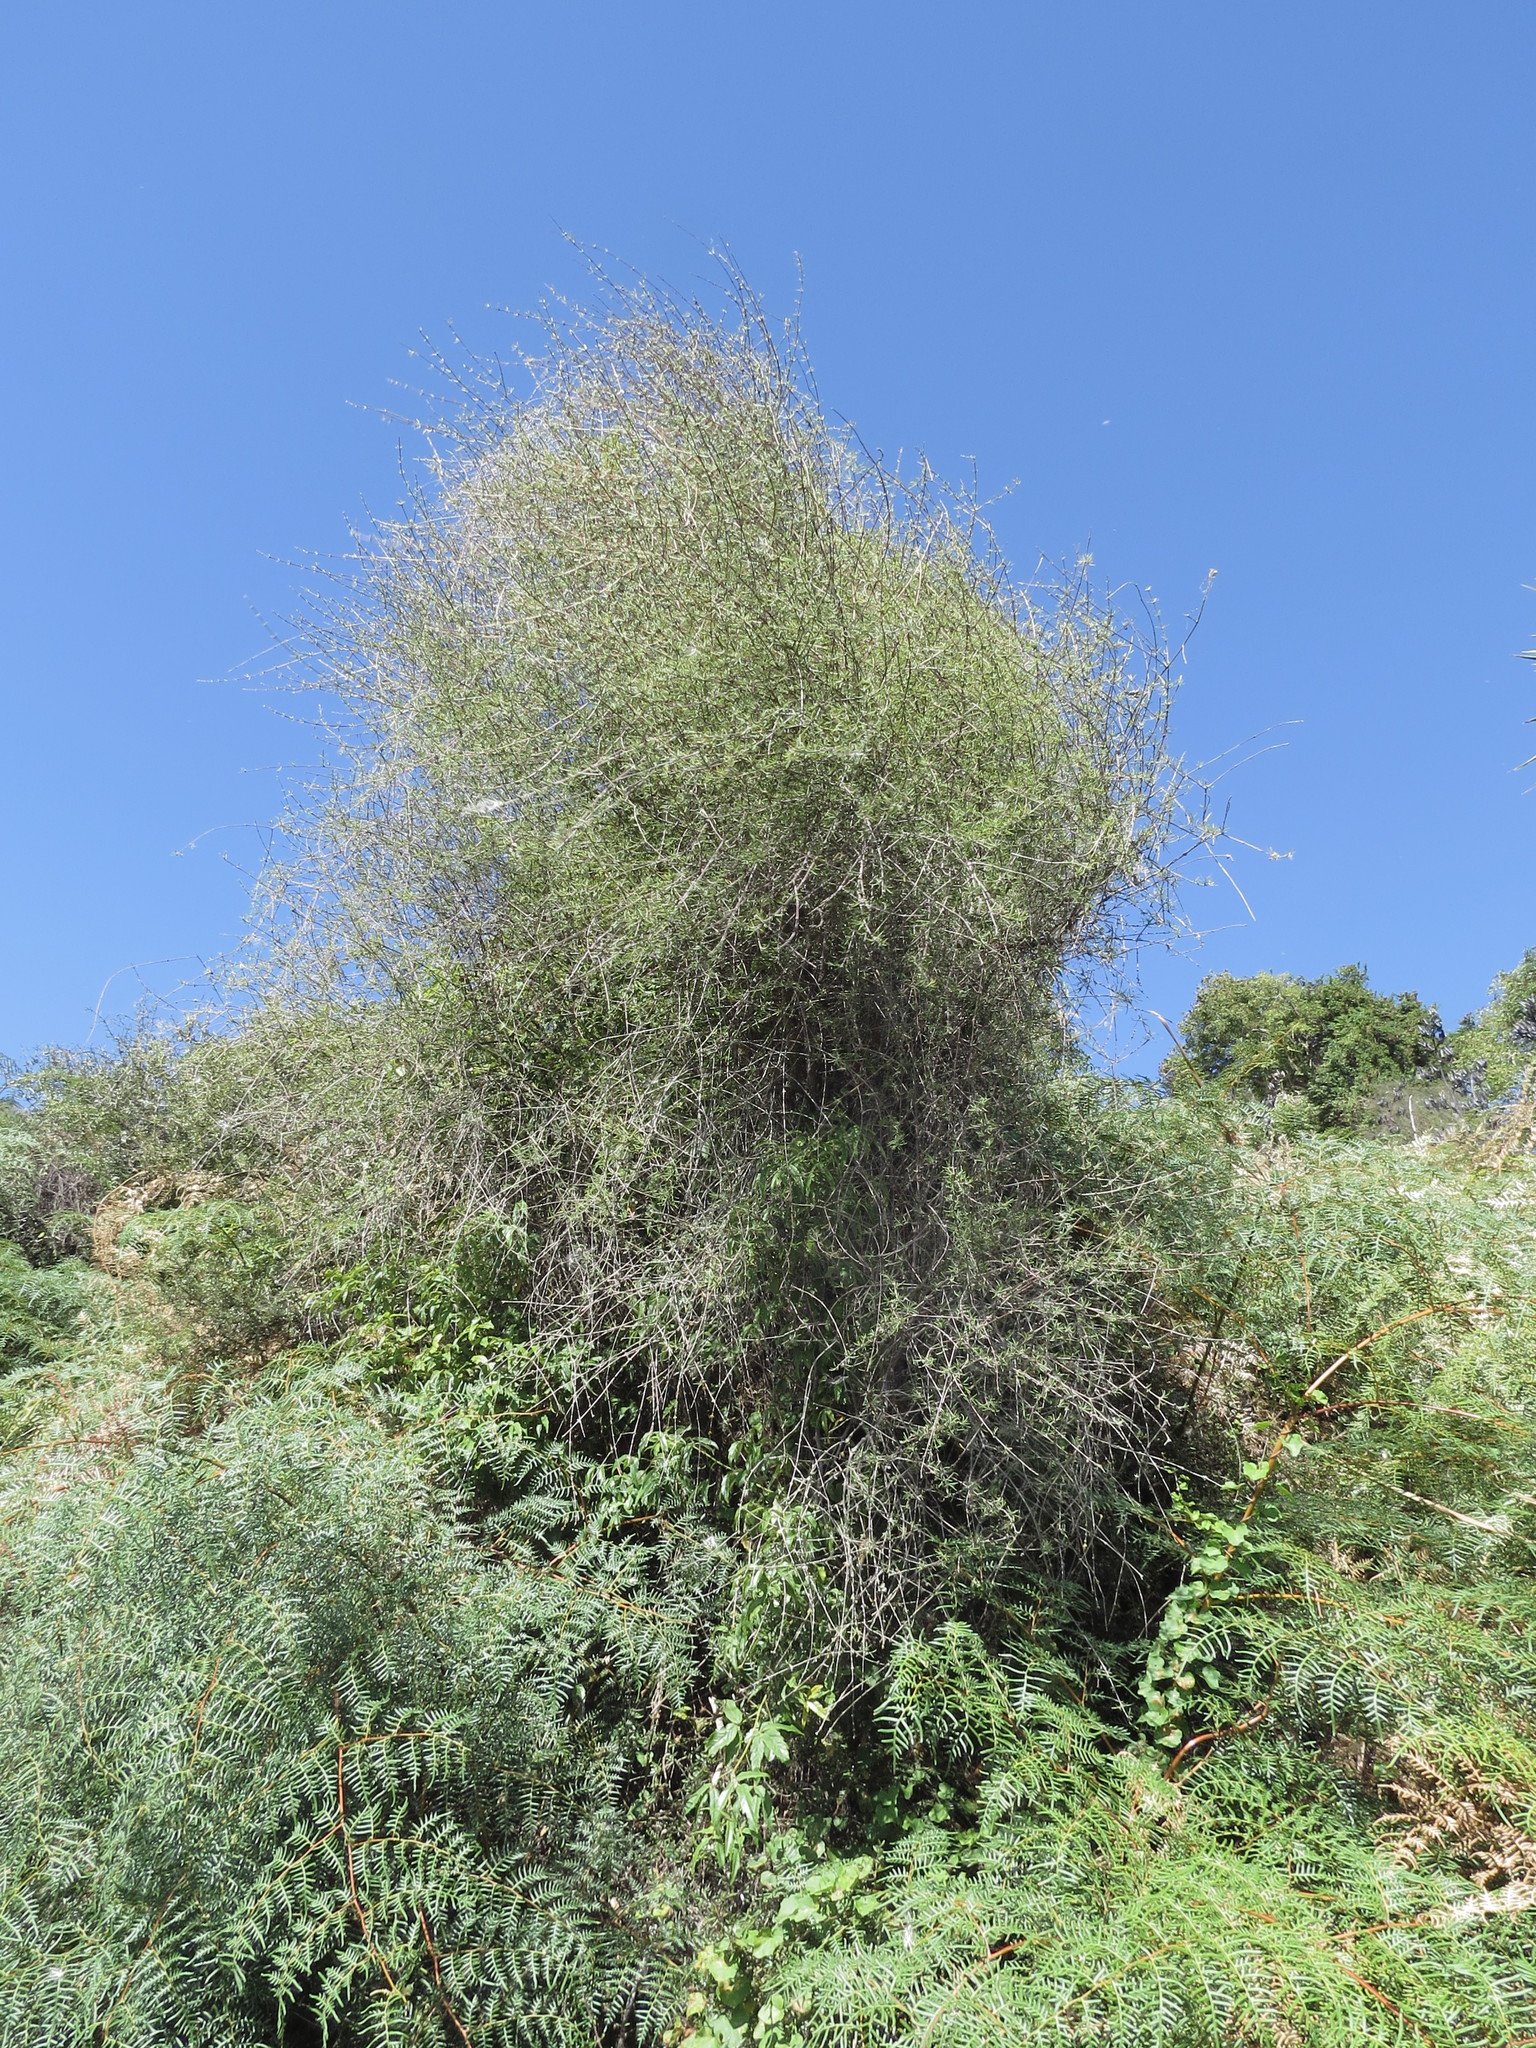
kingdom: Plantae
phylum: Tracheophyta
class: Magnoliopsida
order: Asterales
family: Asteraceae
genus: Olearia
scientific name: Olearia lineata
